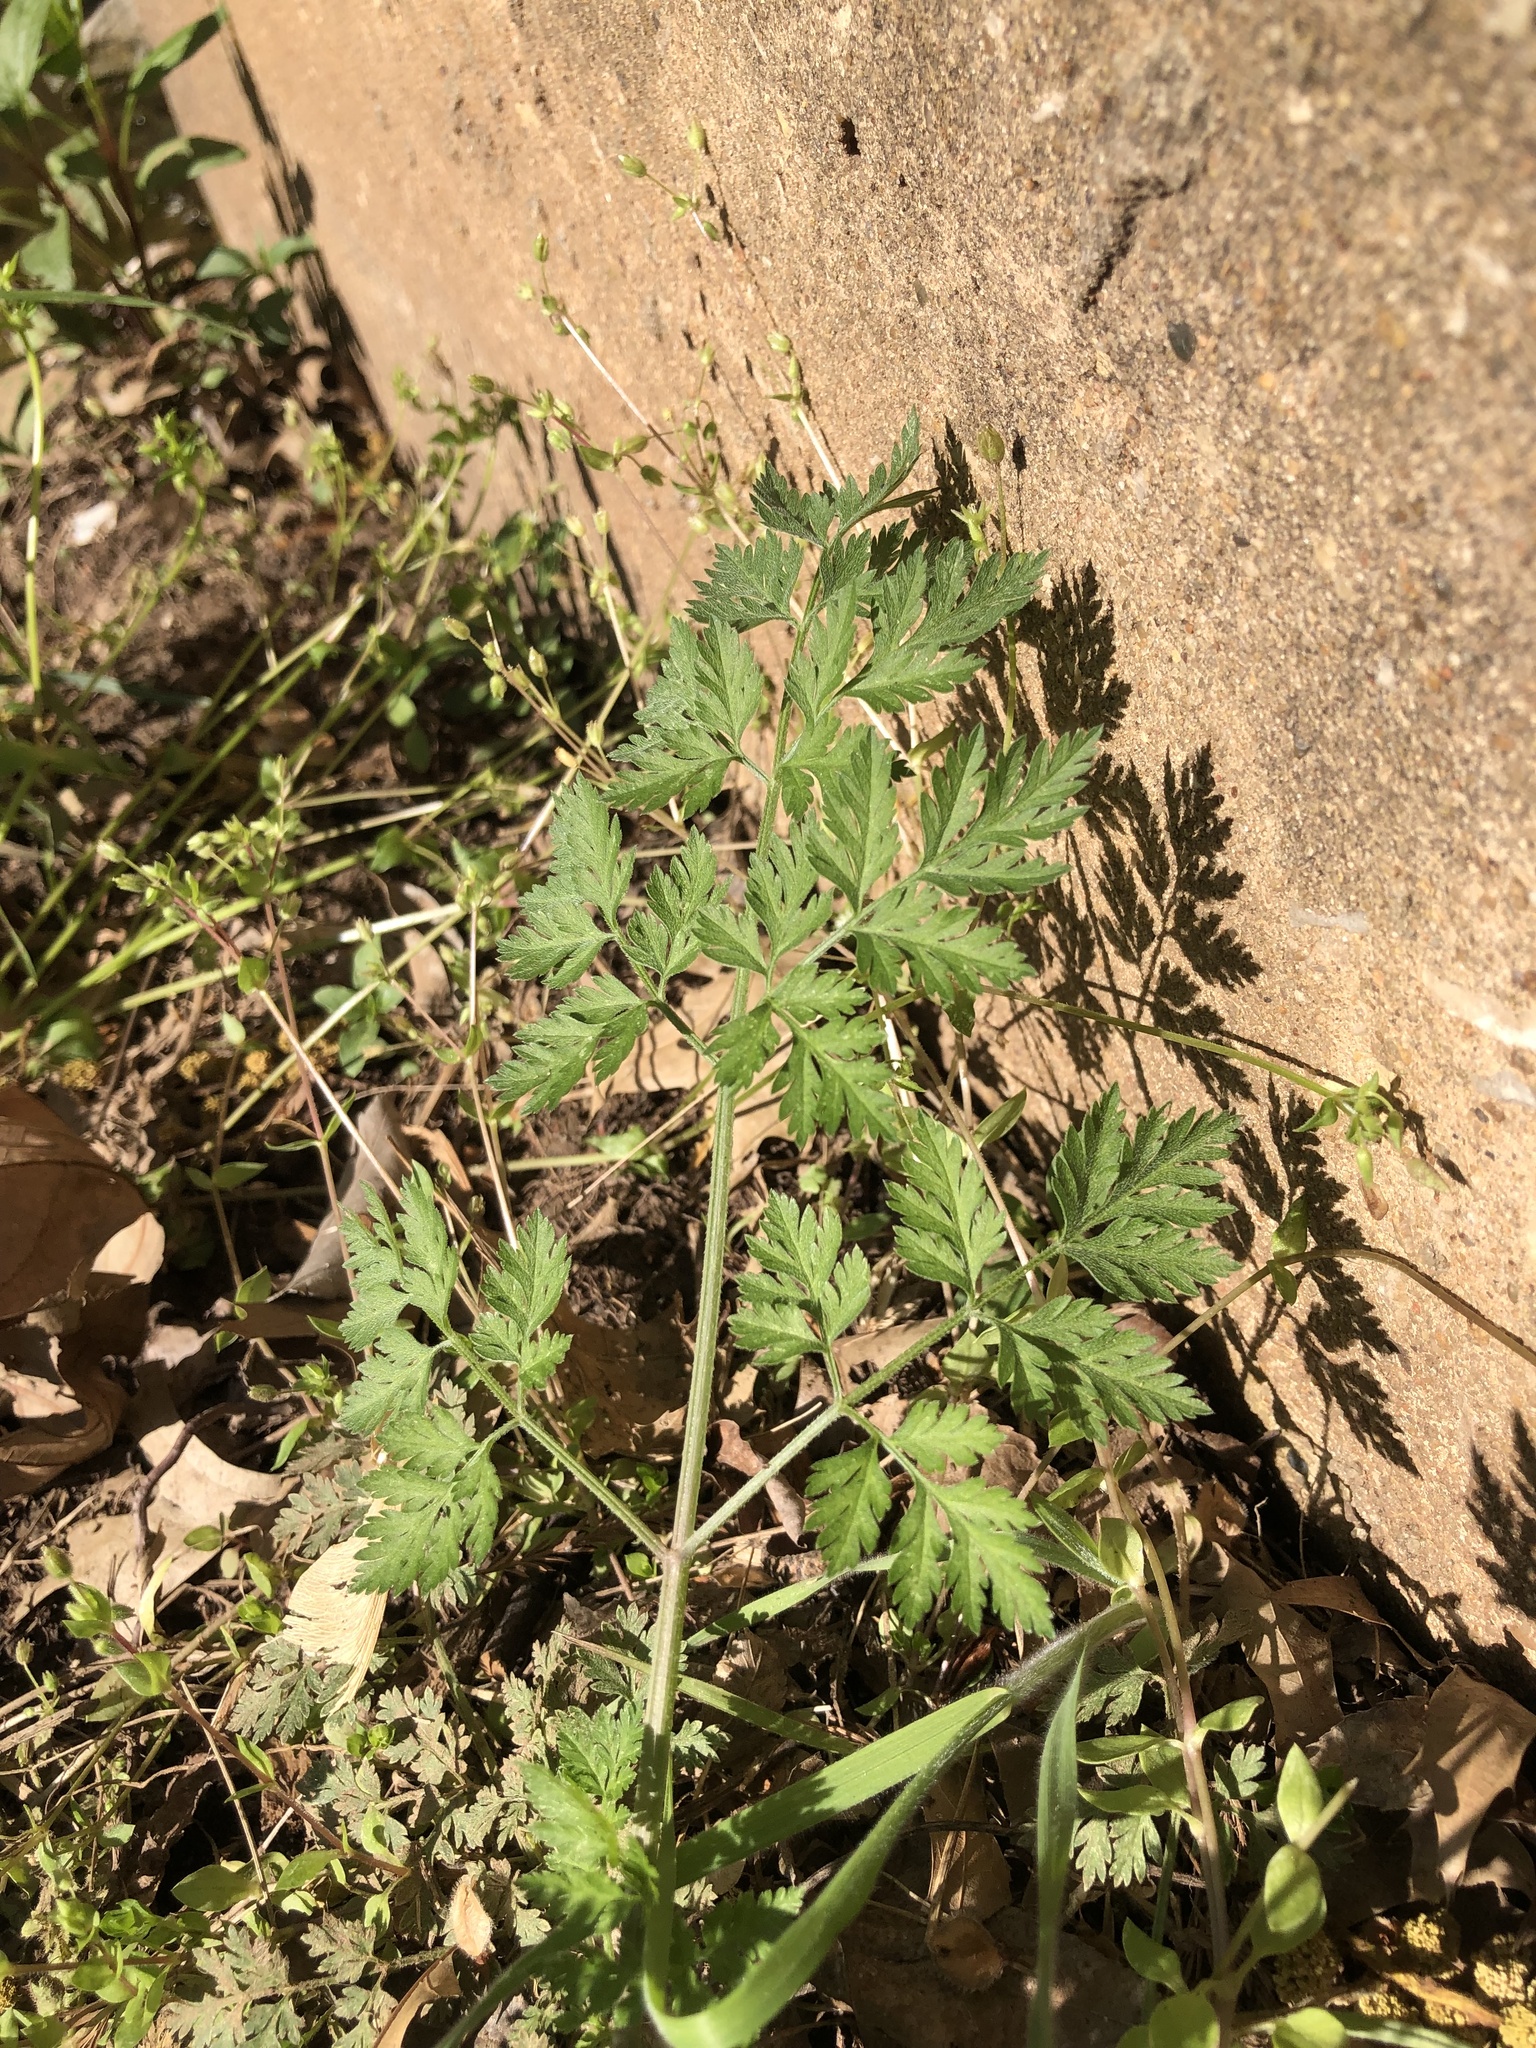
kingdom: Plantae
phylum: Tracheophyta
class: Magnoliopsida
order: Apiales
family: Apiaceae
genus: Torilis
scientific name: Torilis arvensis
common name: Spreading hedge-parsley
